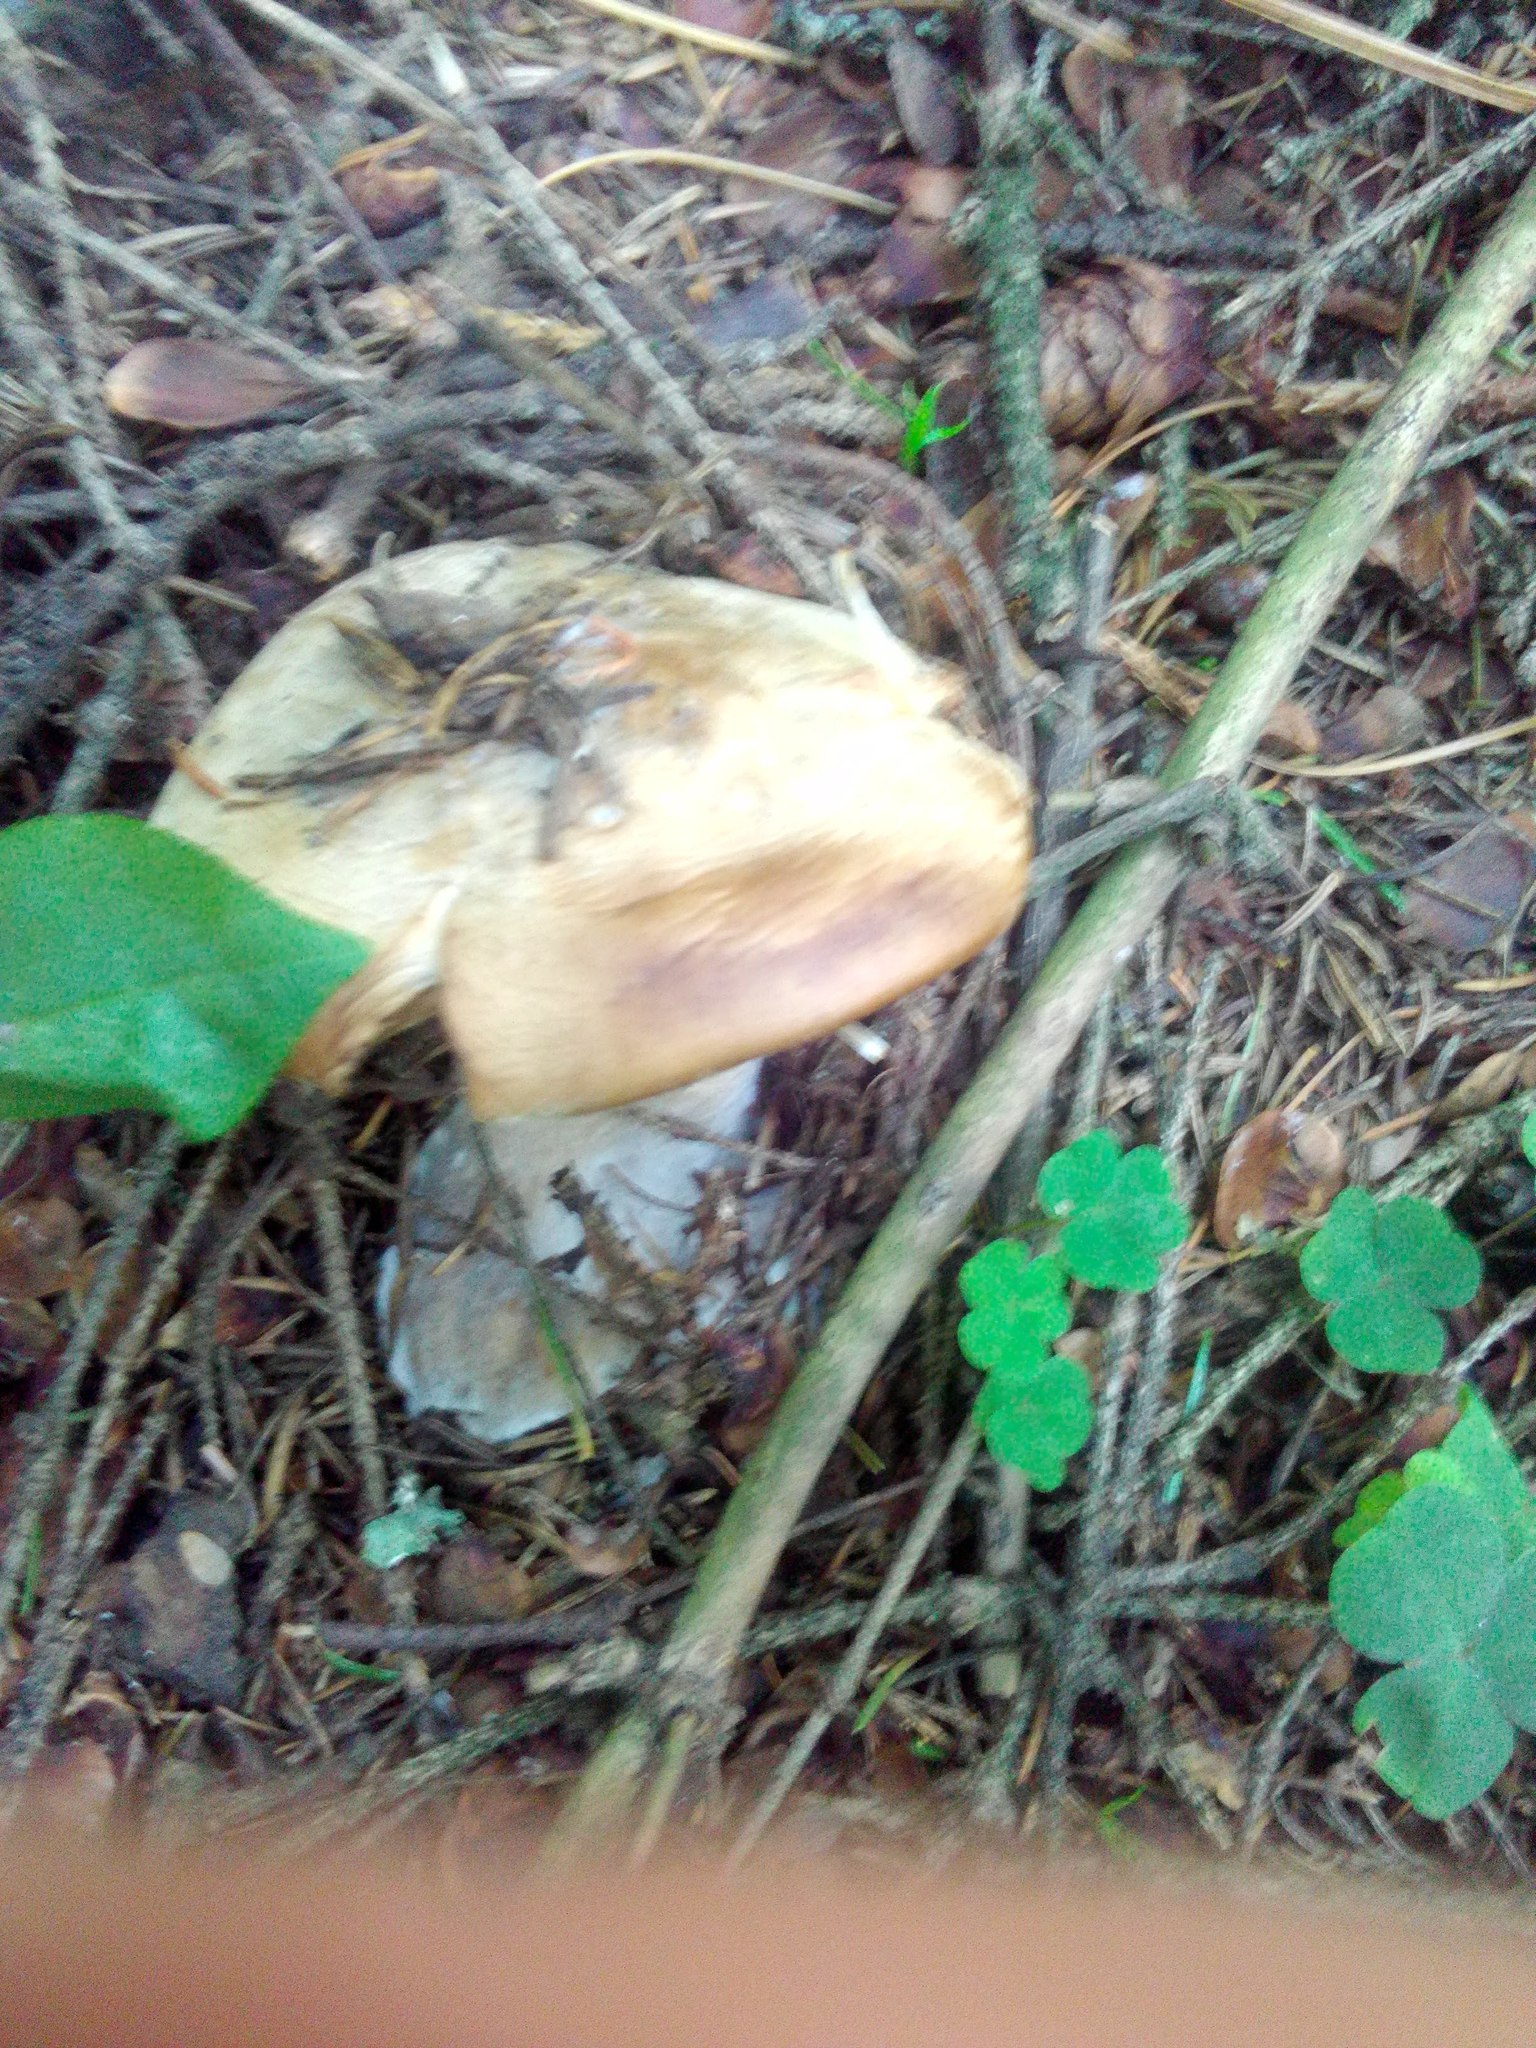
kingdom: Fungi
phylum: Basidiomycota
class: Agaricomycetes
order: Boletales
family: Paxillaceae
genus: Paxillus
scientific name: Paxillus involutus
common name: Brown roll rim
